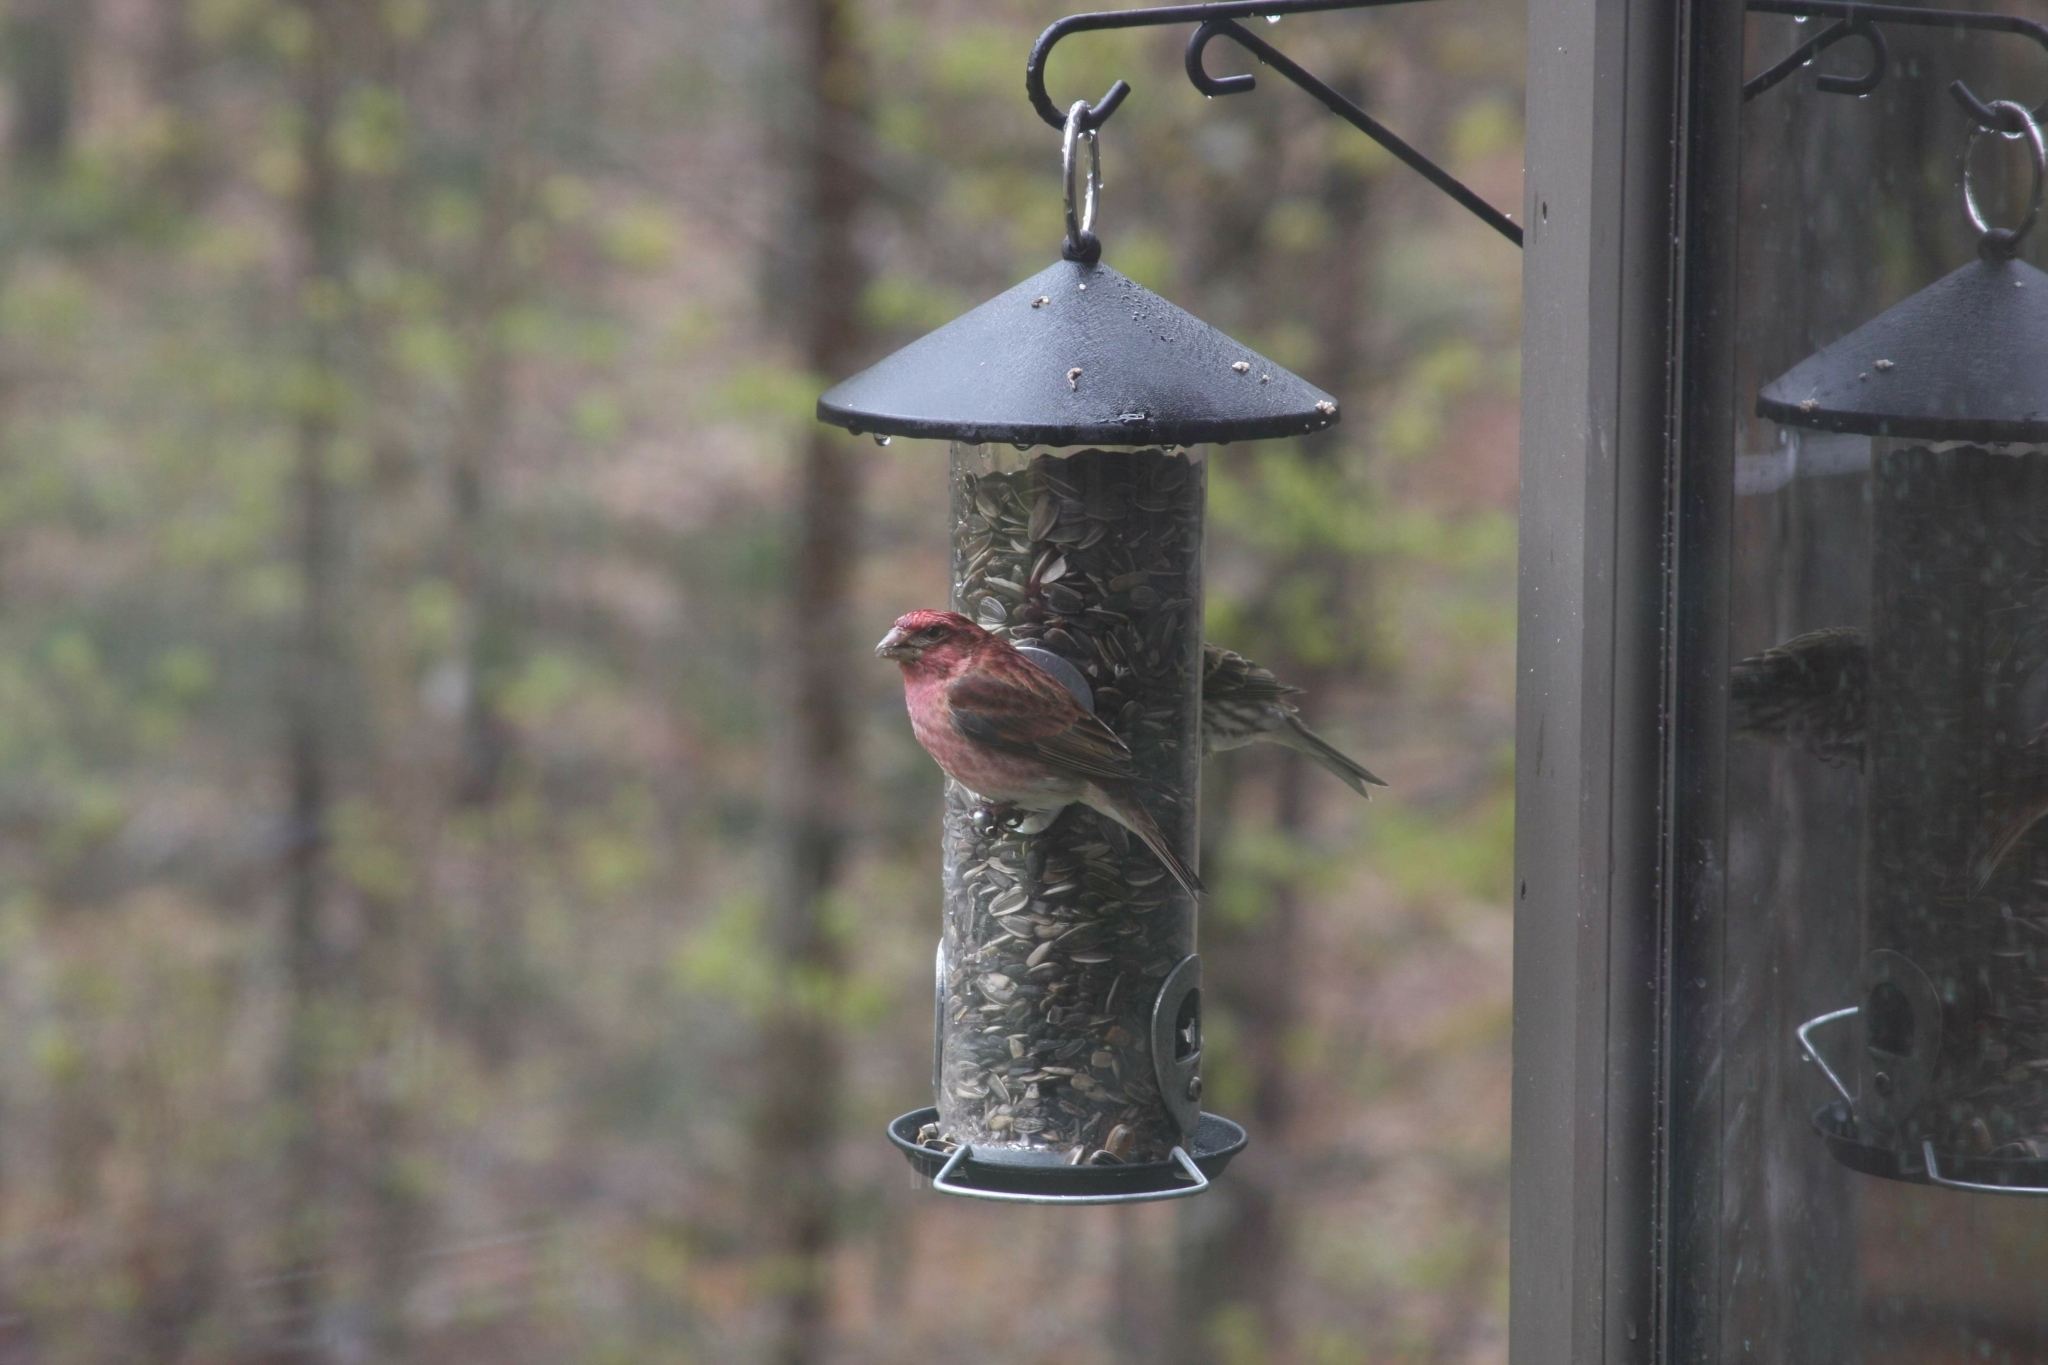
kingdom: Animalia
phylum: Chordata
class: Aves
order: Passeriformes
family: Fringillidae
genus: Haemorhous
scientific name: Haemorhous purpureus
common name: Purple finch
